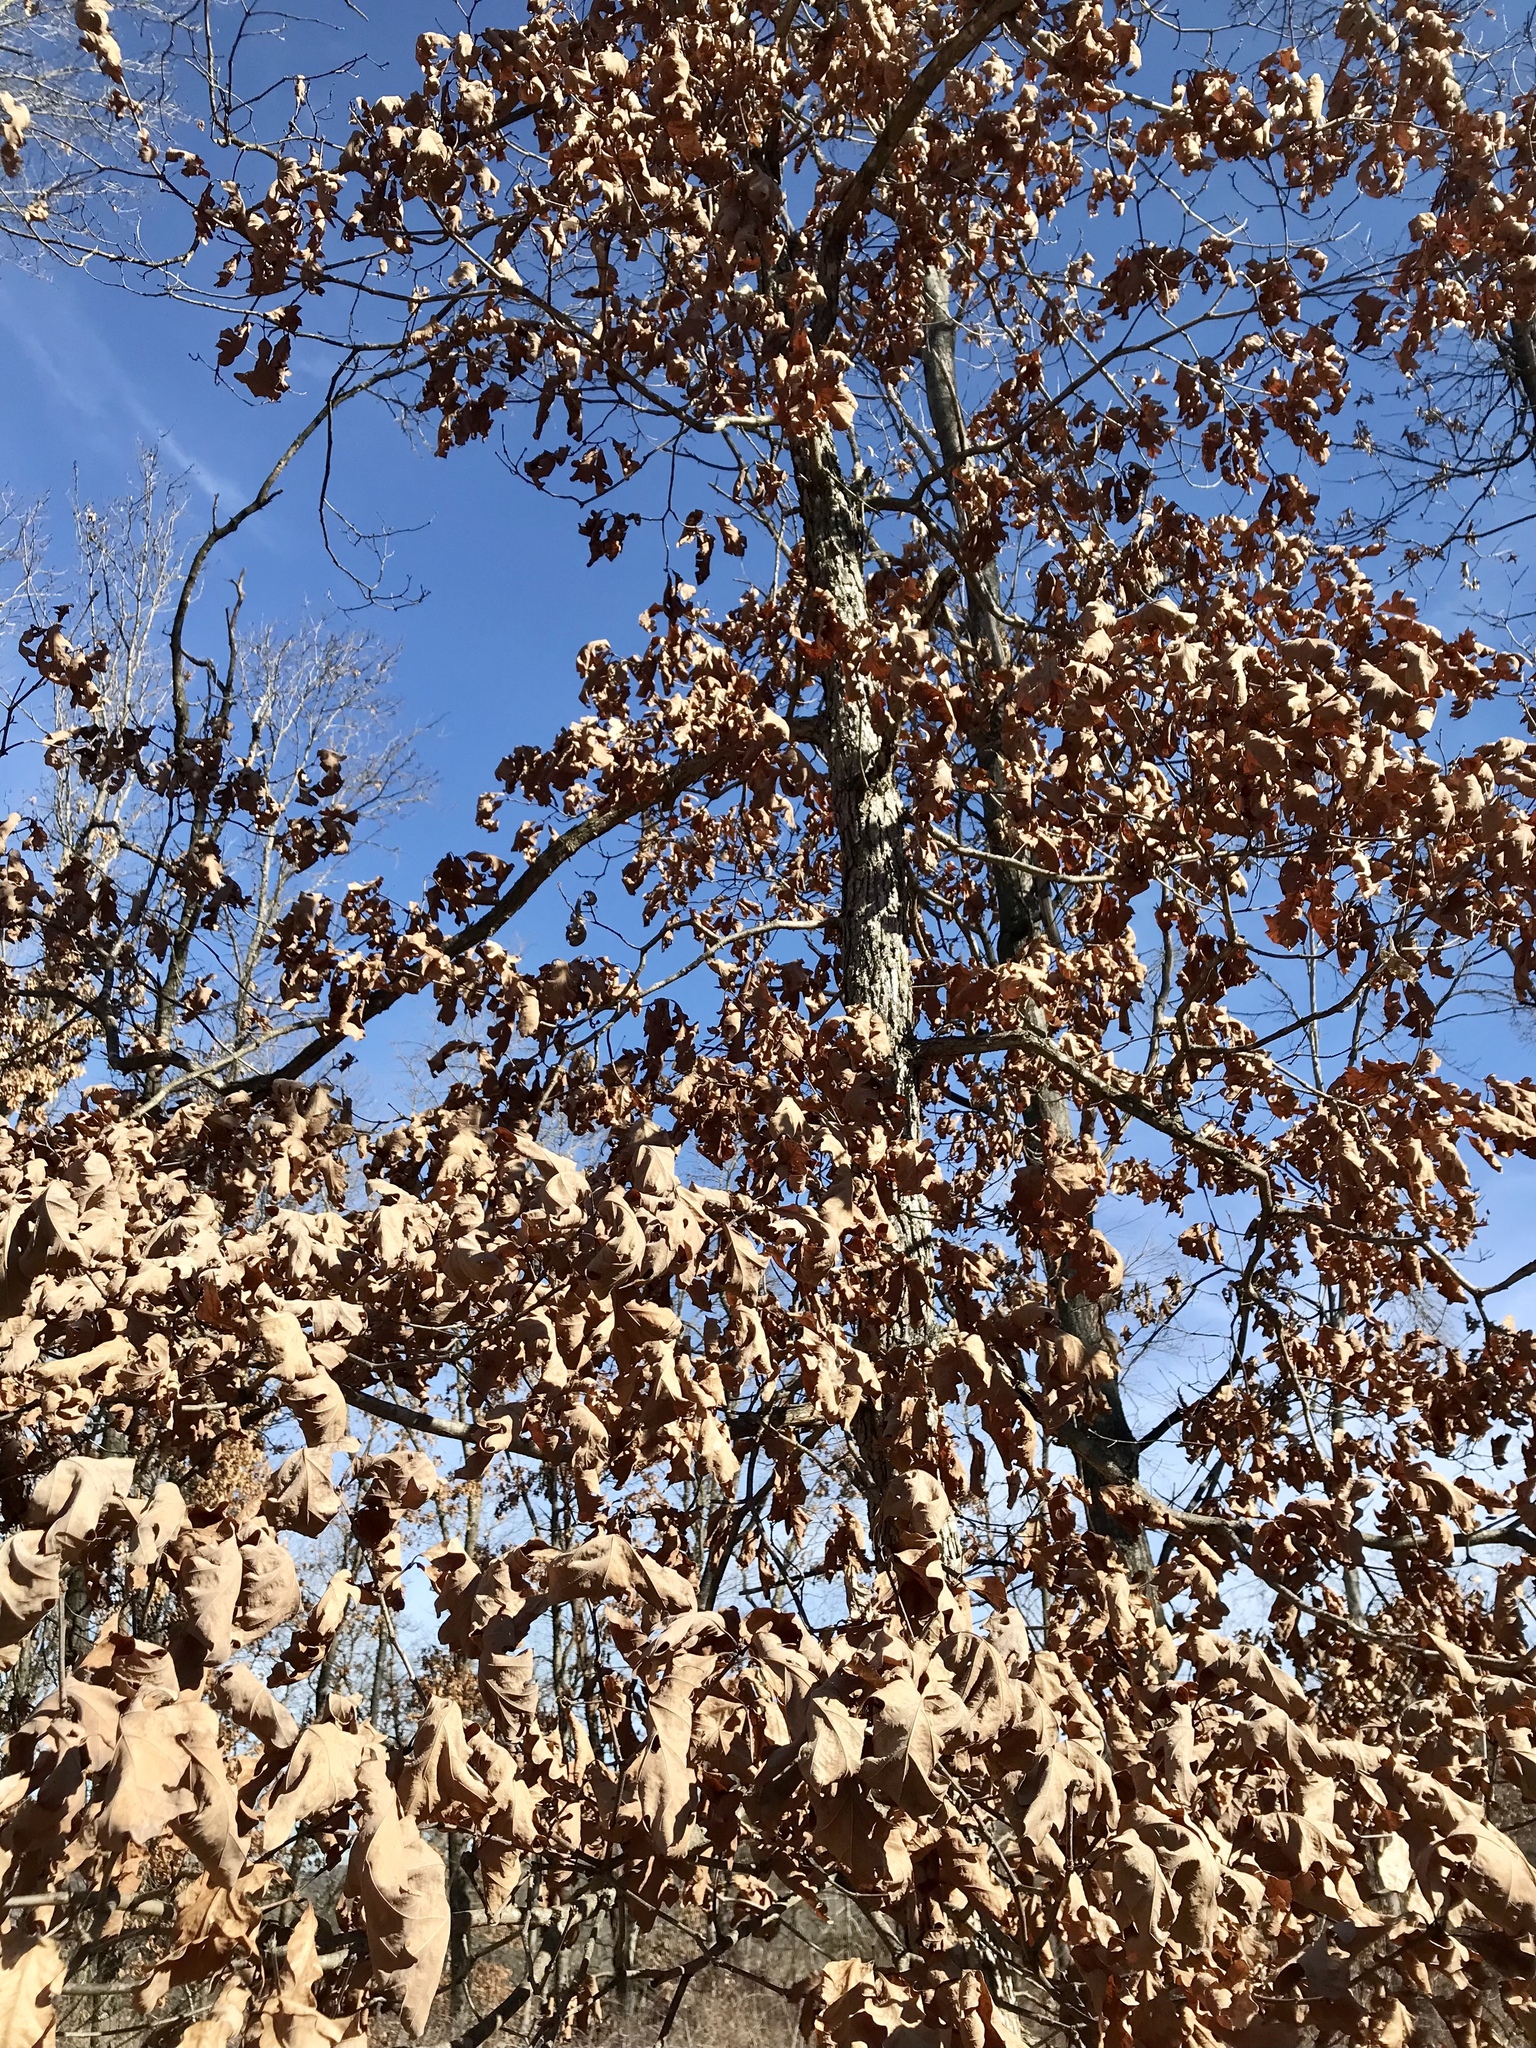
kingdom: Plantae
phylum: Tracheophyta
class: Magnoliopsida
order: Fagales
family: Fagaceae
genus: Quercus
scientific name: Quercus alba
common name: White oak
